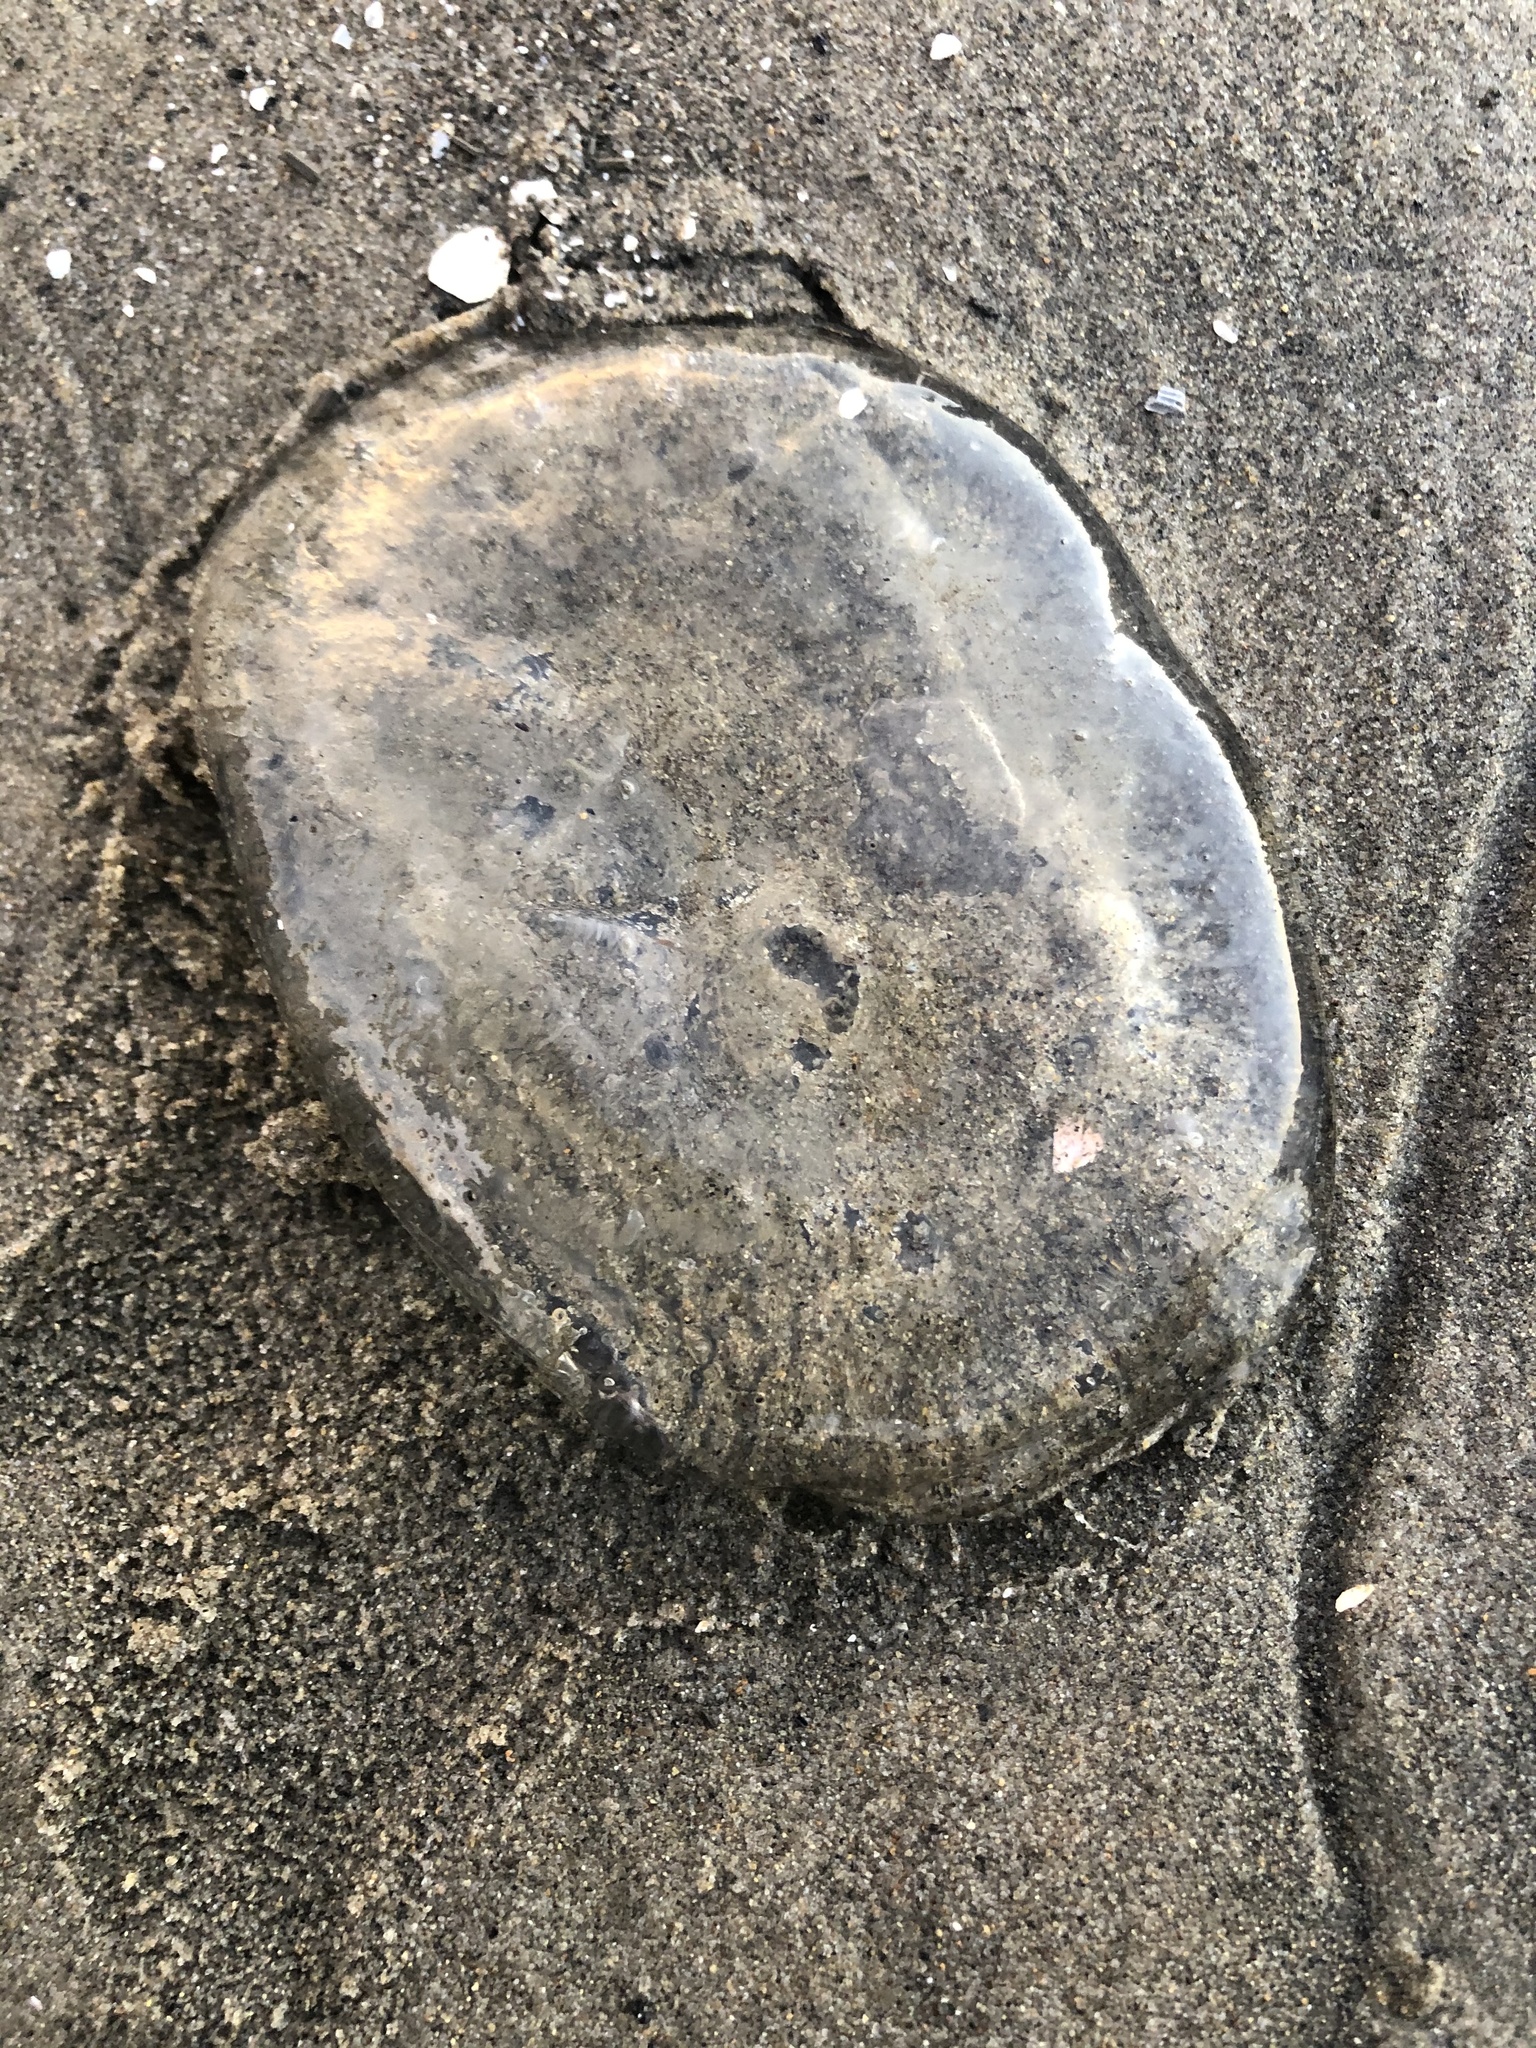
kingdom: Animalia
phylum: Cnidaria
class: Hydrozoa
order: Leptothecata
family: Aequoreidae
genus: Aequorea
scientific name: Aequorea victoria
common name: Water jellyfish
